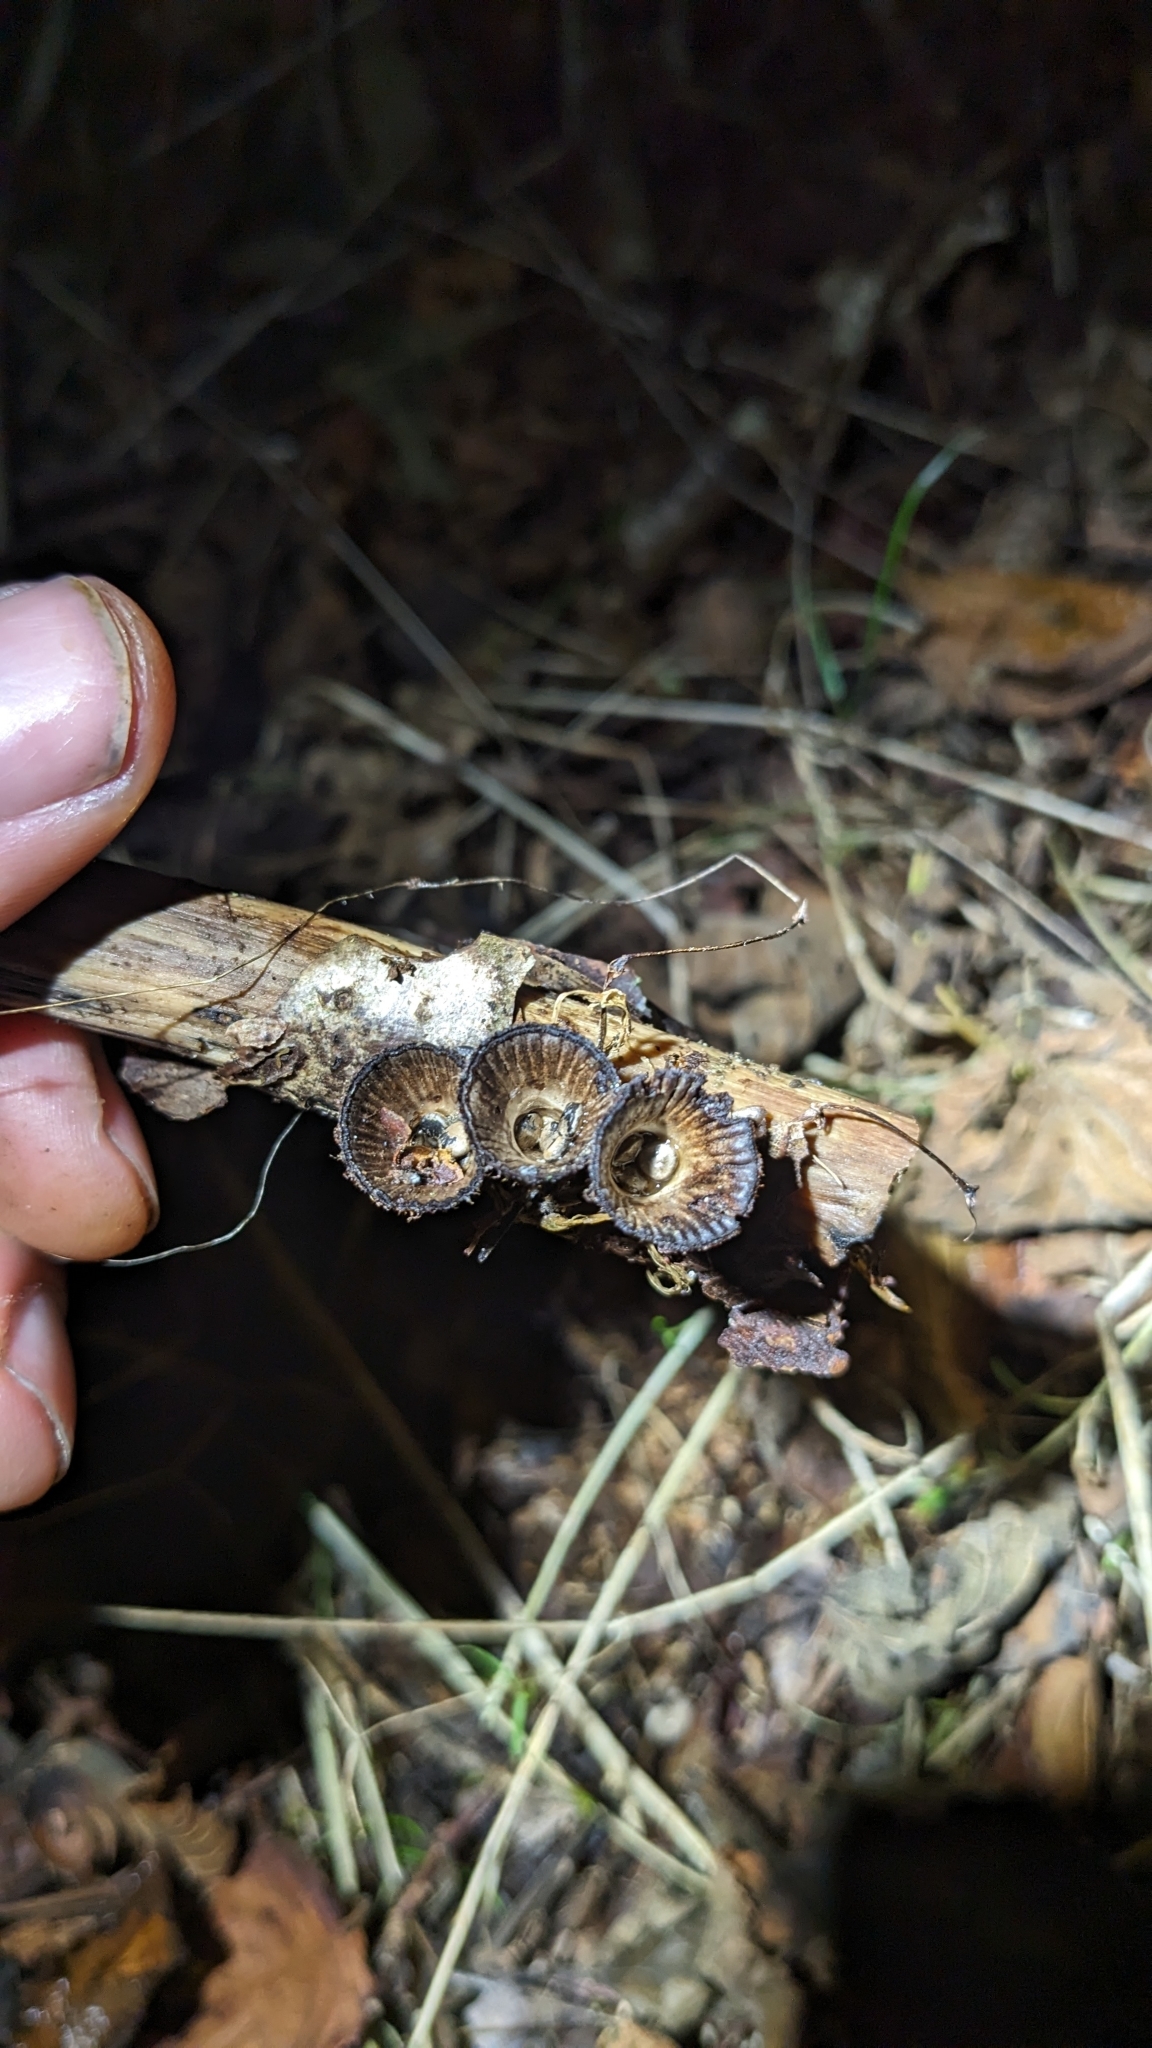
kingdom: Fungi
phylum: Basidiomycota
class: Agaricomycetes
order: Agaricales
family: Agaricaceae
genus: Cyathus
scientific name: Cyathus striatus
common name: Fluted bird's nest
